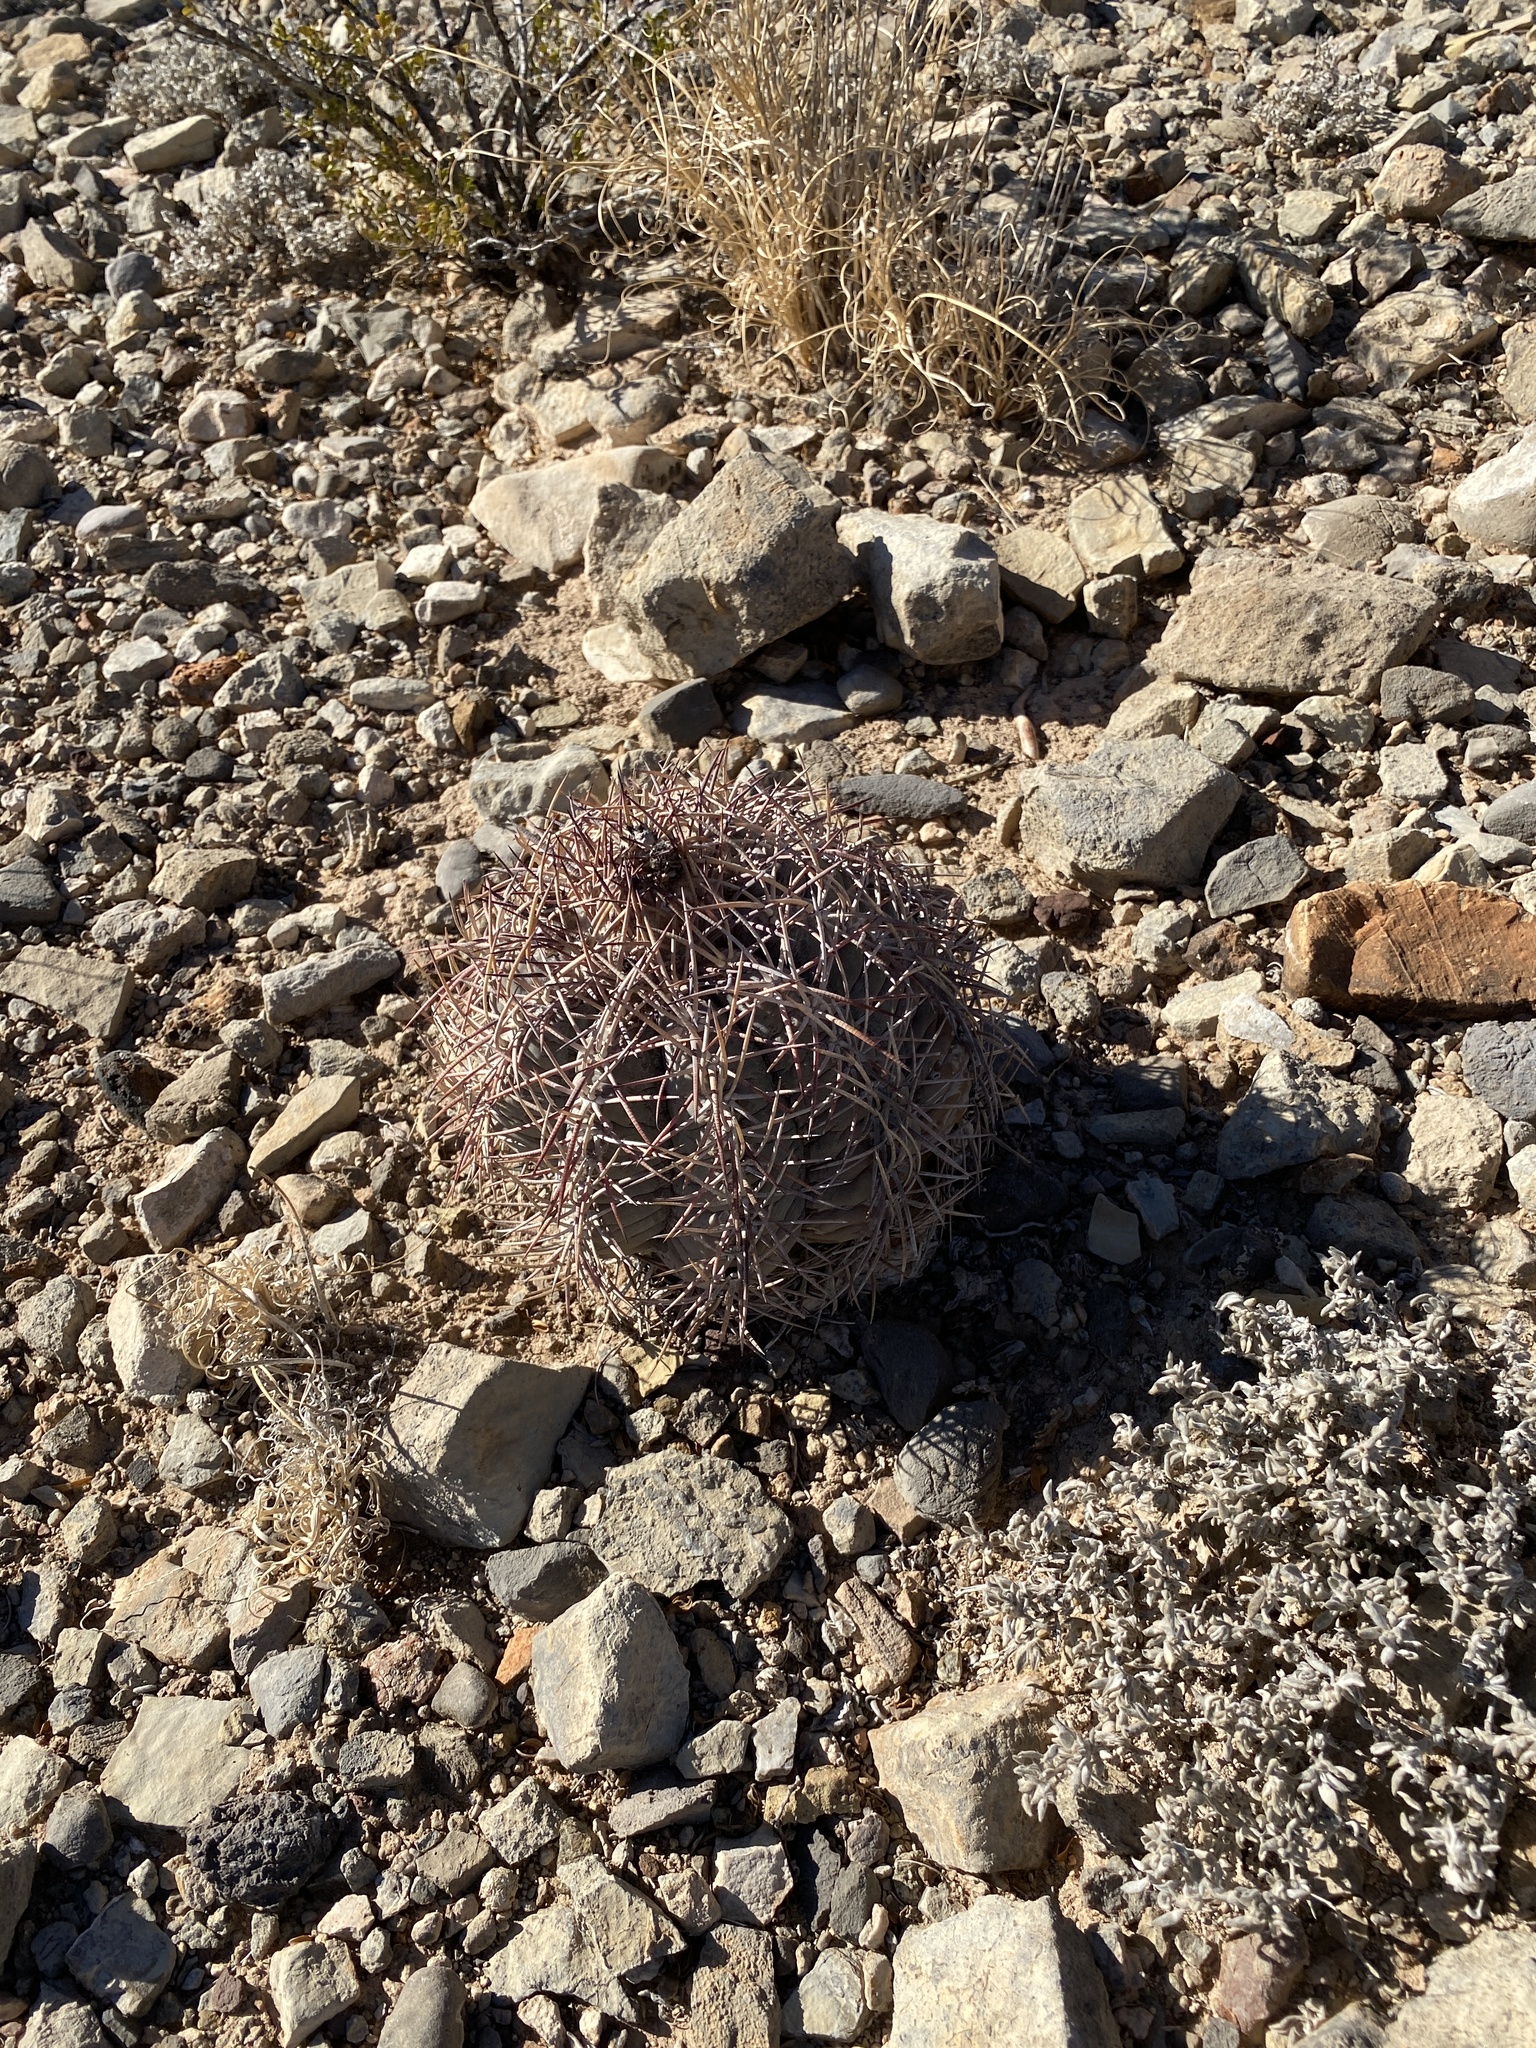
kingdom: Plantae
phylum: Tracheophyta
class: Magnoliopsida
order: Caryophyllales
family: Cactaceae
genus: Echinocactus
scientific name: Echinocactus horizonthalonius
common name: Devilshead
